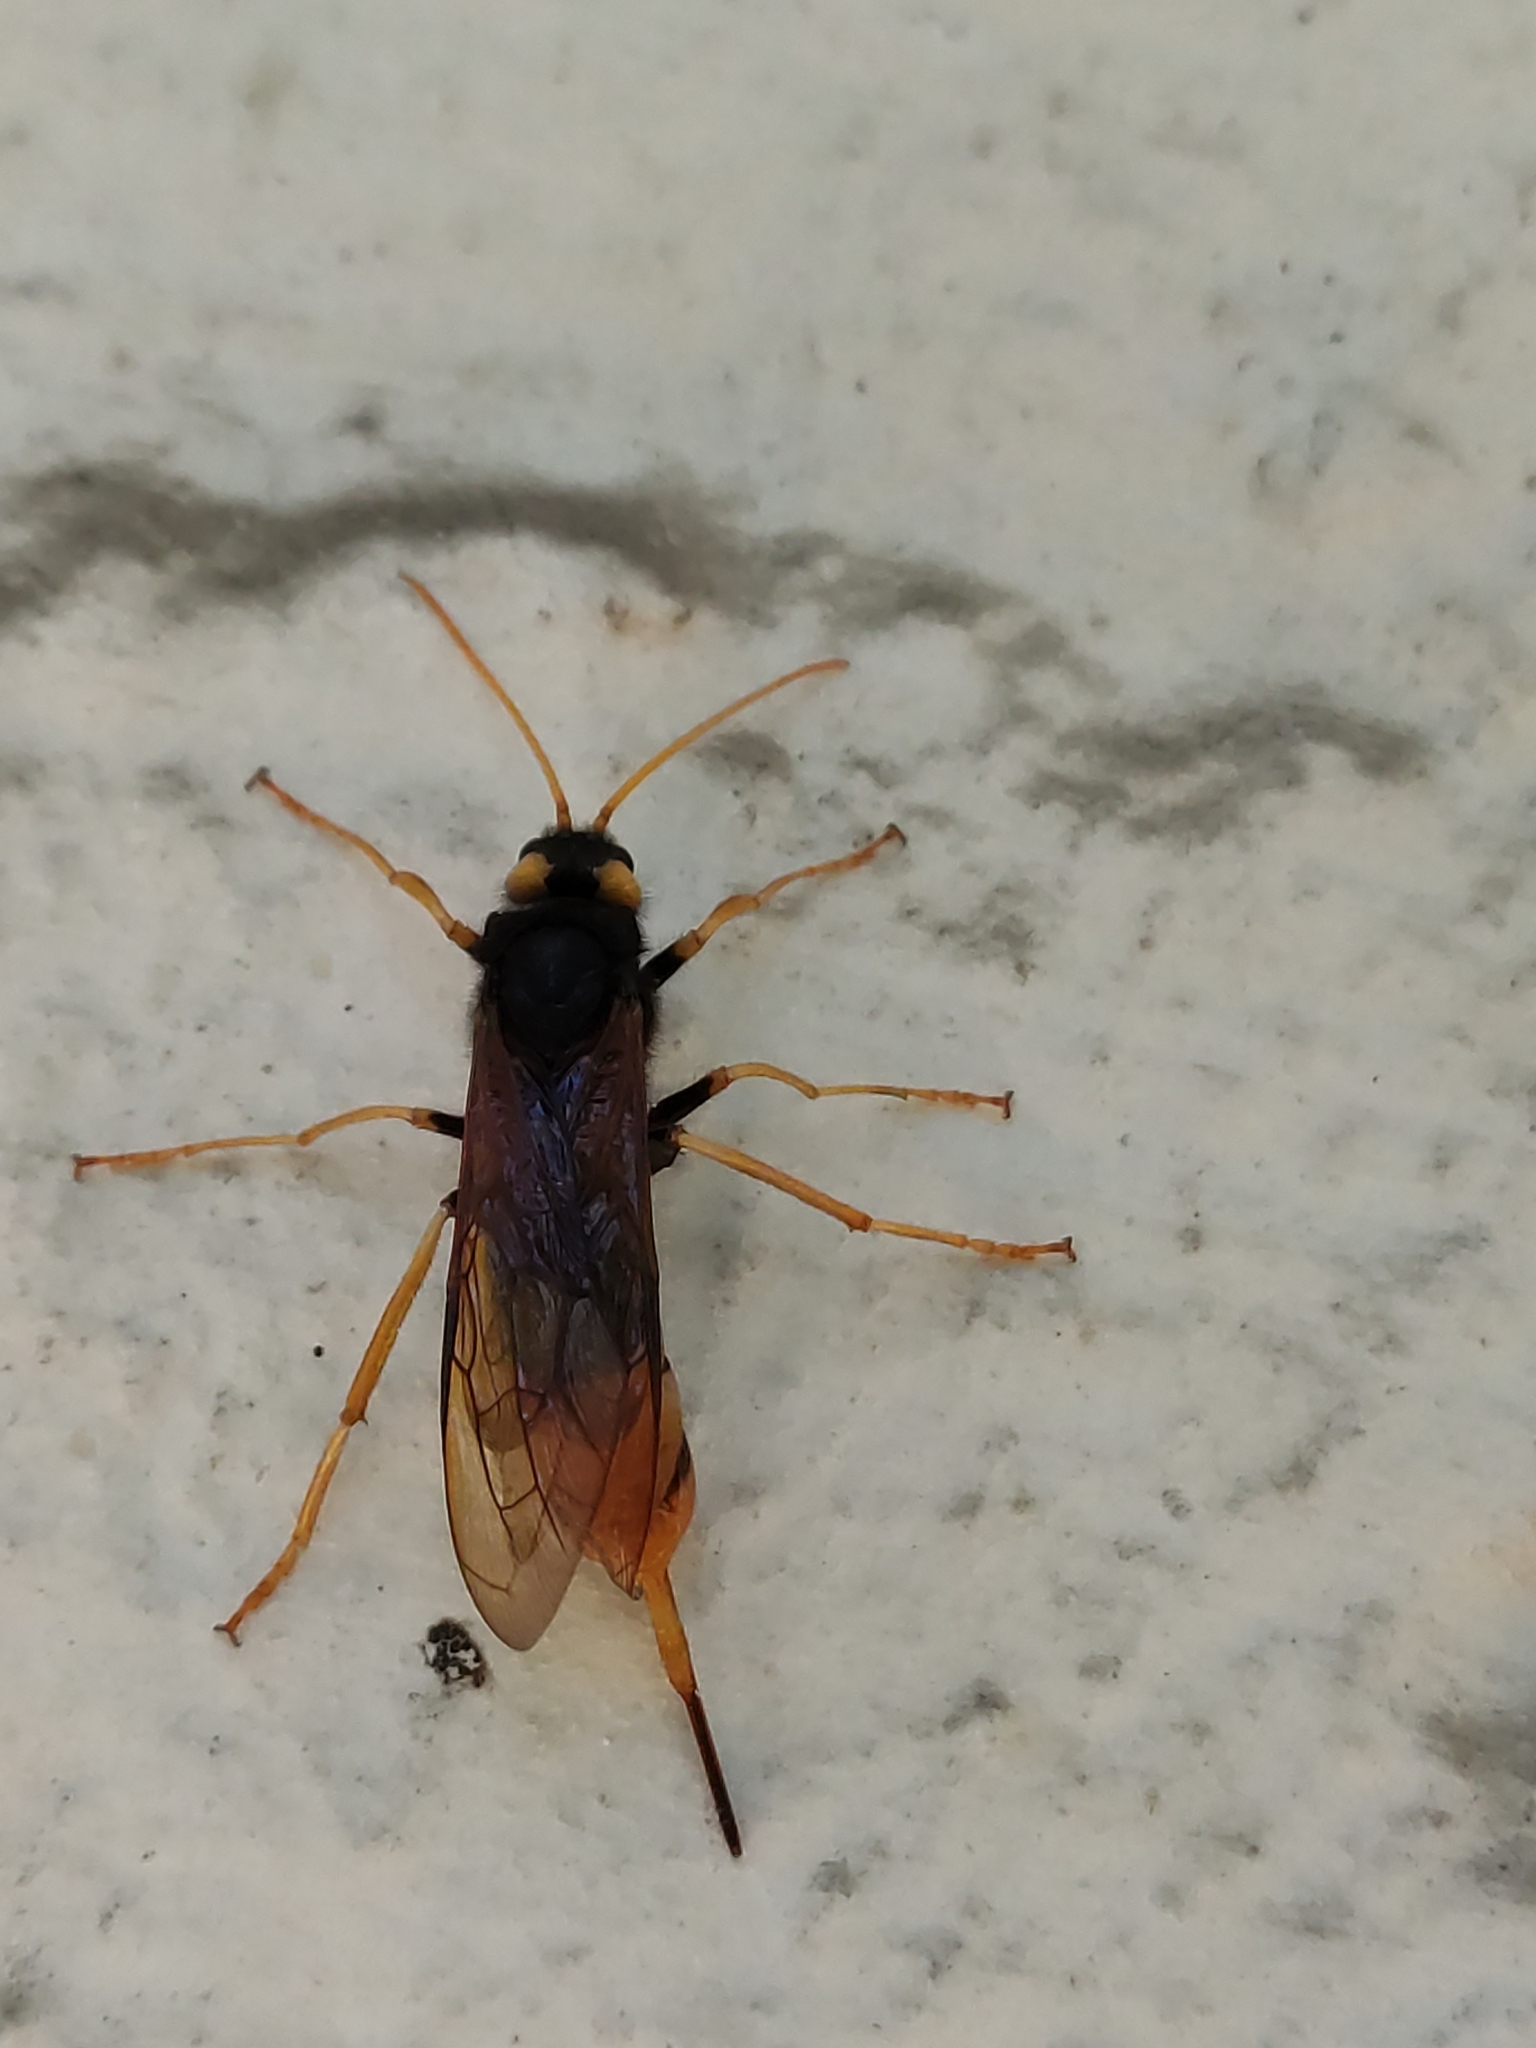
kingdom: Animalia
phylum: Arthropoda
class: Insecta
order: Hymenoptera
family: Siricidae
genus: Urocerus
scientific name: Urocerus gigas
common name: Giant woodwasp
